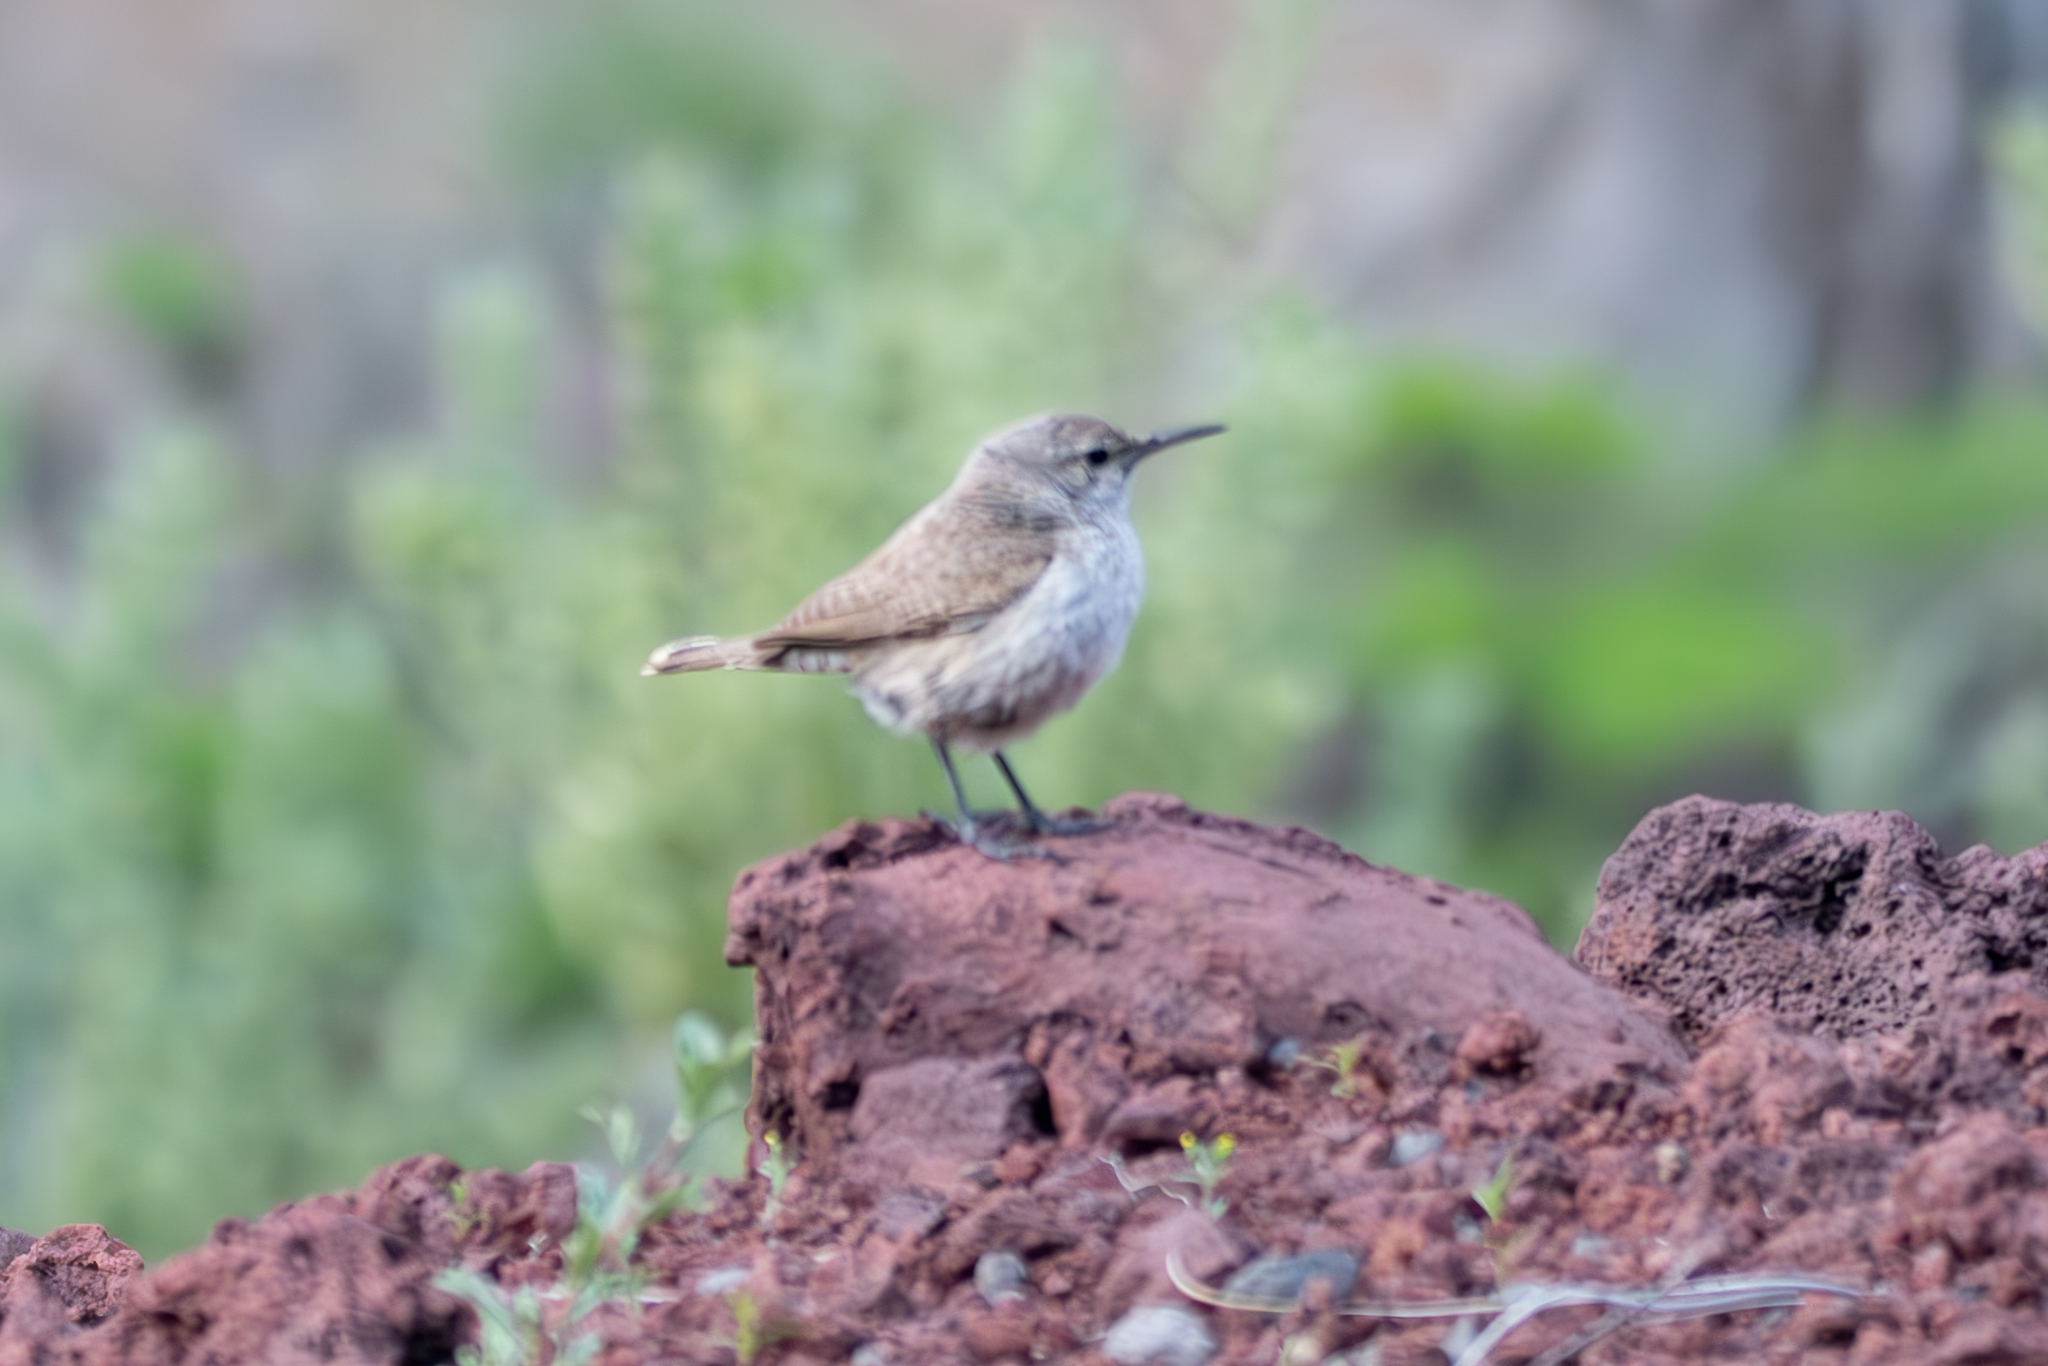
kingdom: Animalia
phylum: Chordata
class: Aves
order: Passeriformes
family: Troglodytidae
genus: Salpinctes
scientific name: Salpinctes obsoletus
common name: Rock wren
